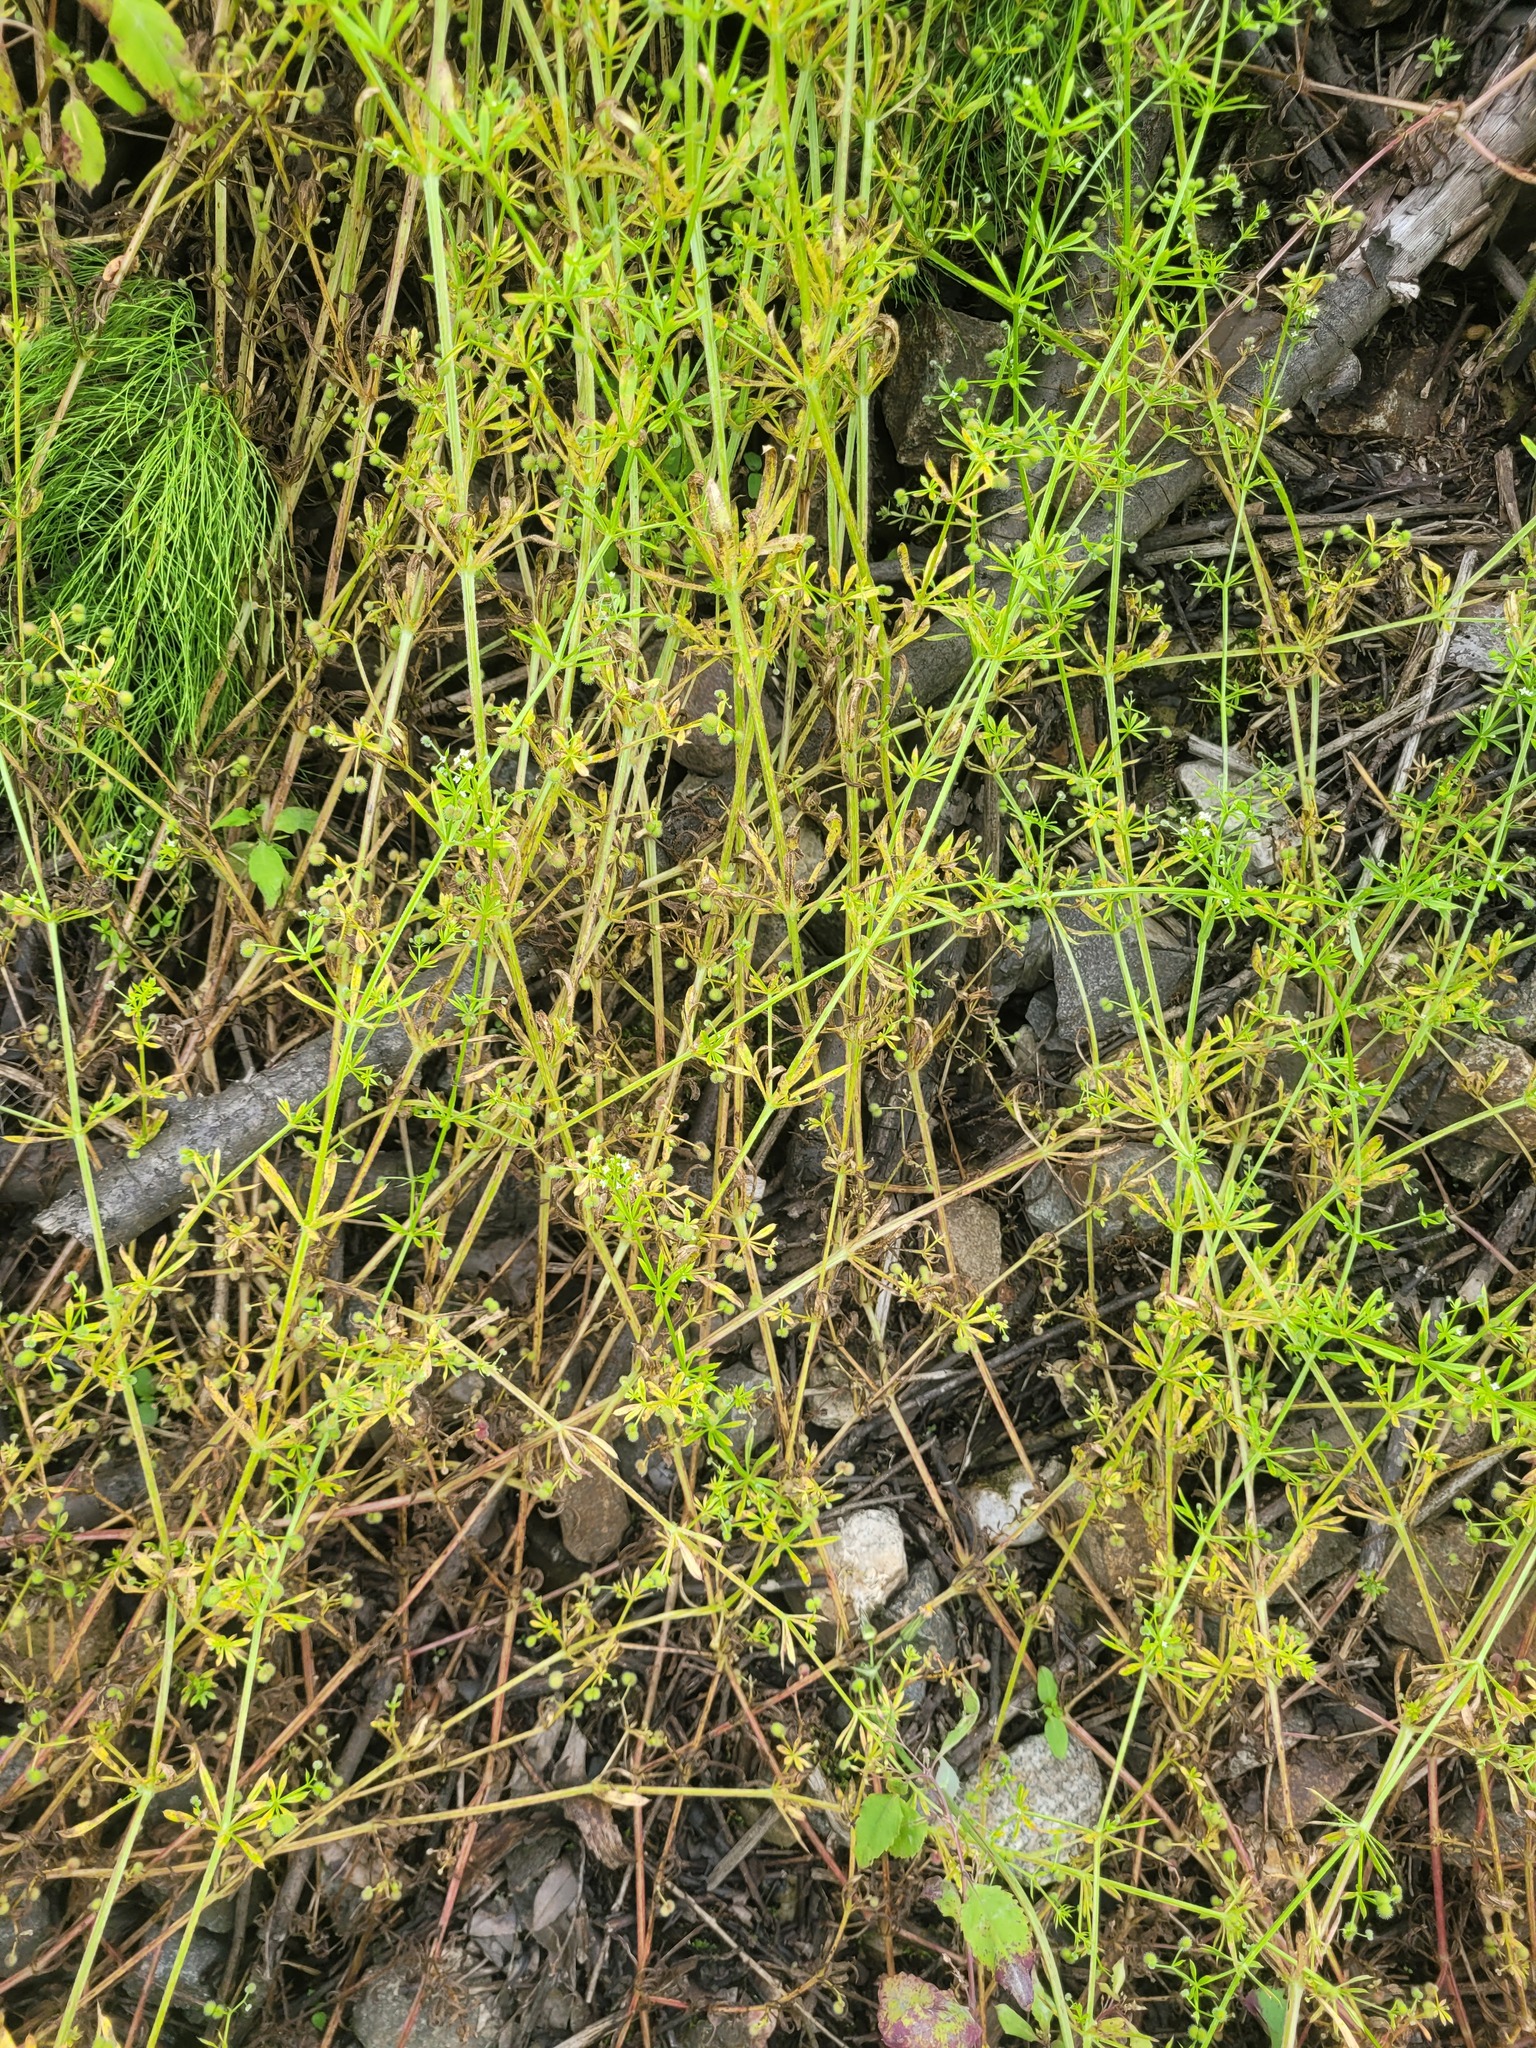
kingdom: Plantae
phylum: Tracheophyta
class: Magnoliopsida
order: Gentianales
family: Rubiaceae
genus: Galium
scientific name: Galium aparine
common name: Cleavers
